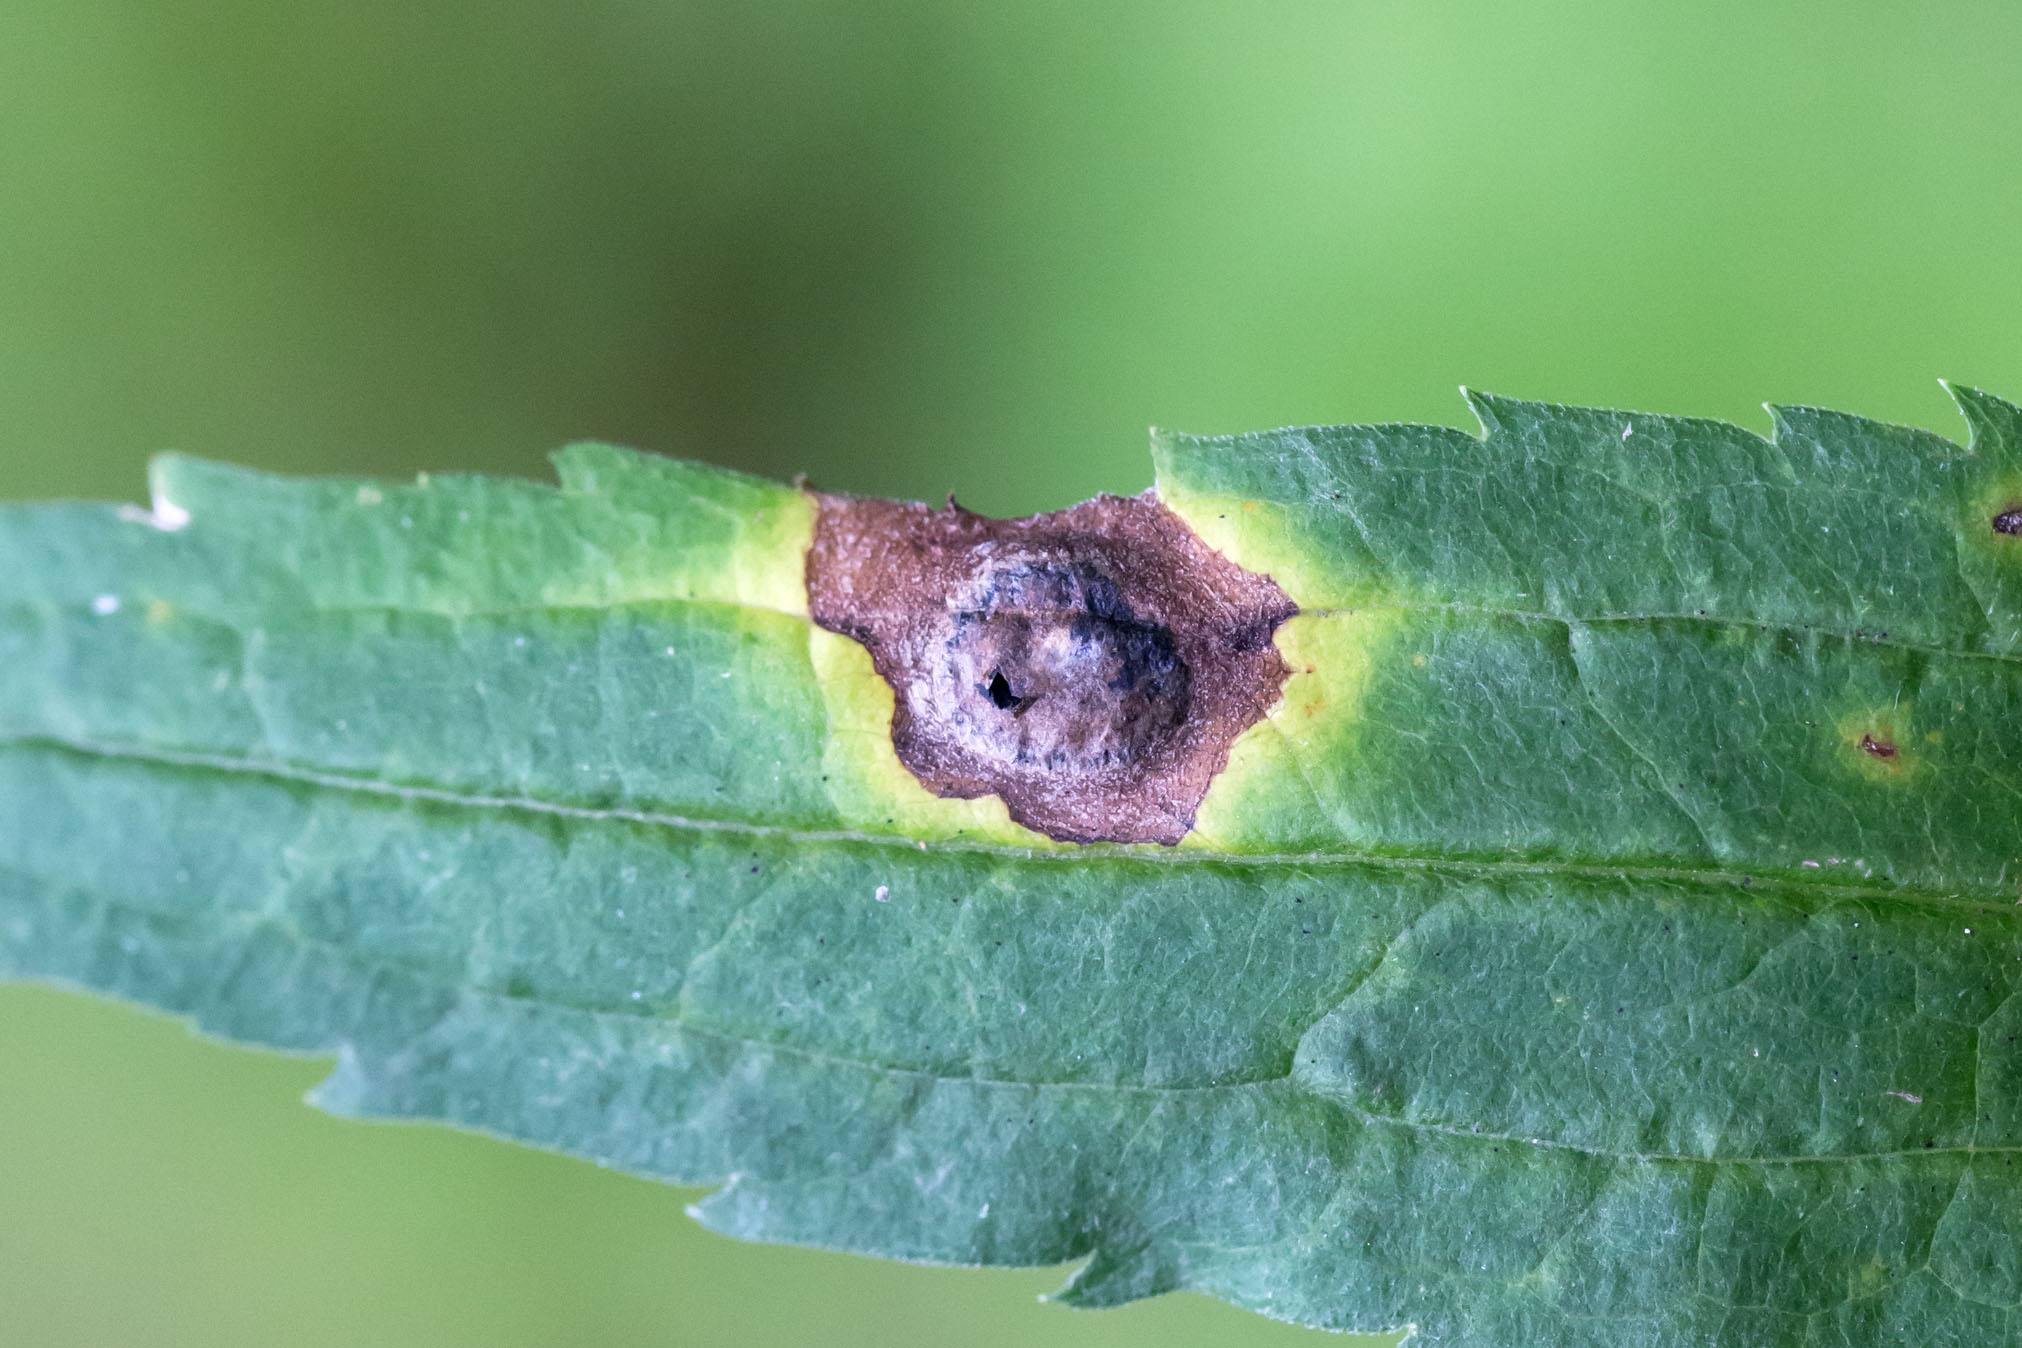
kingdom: Animalia
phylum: Arthropoda
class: Insecta
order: Diptera
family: Cecidomyiidae
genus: Asteromyia
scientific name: Asteromyia carbonifera
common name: Carbonifera goldenrod gall midge
